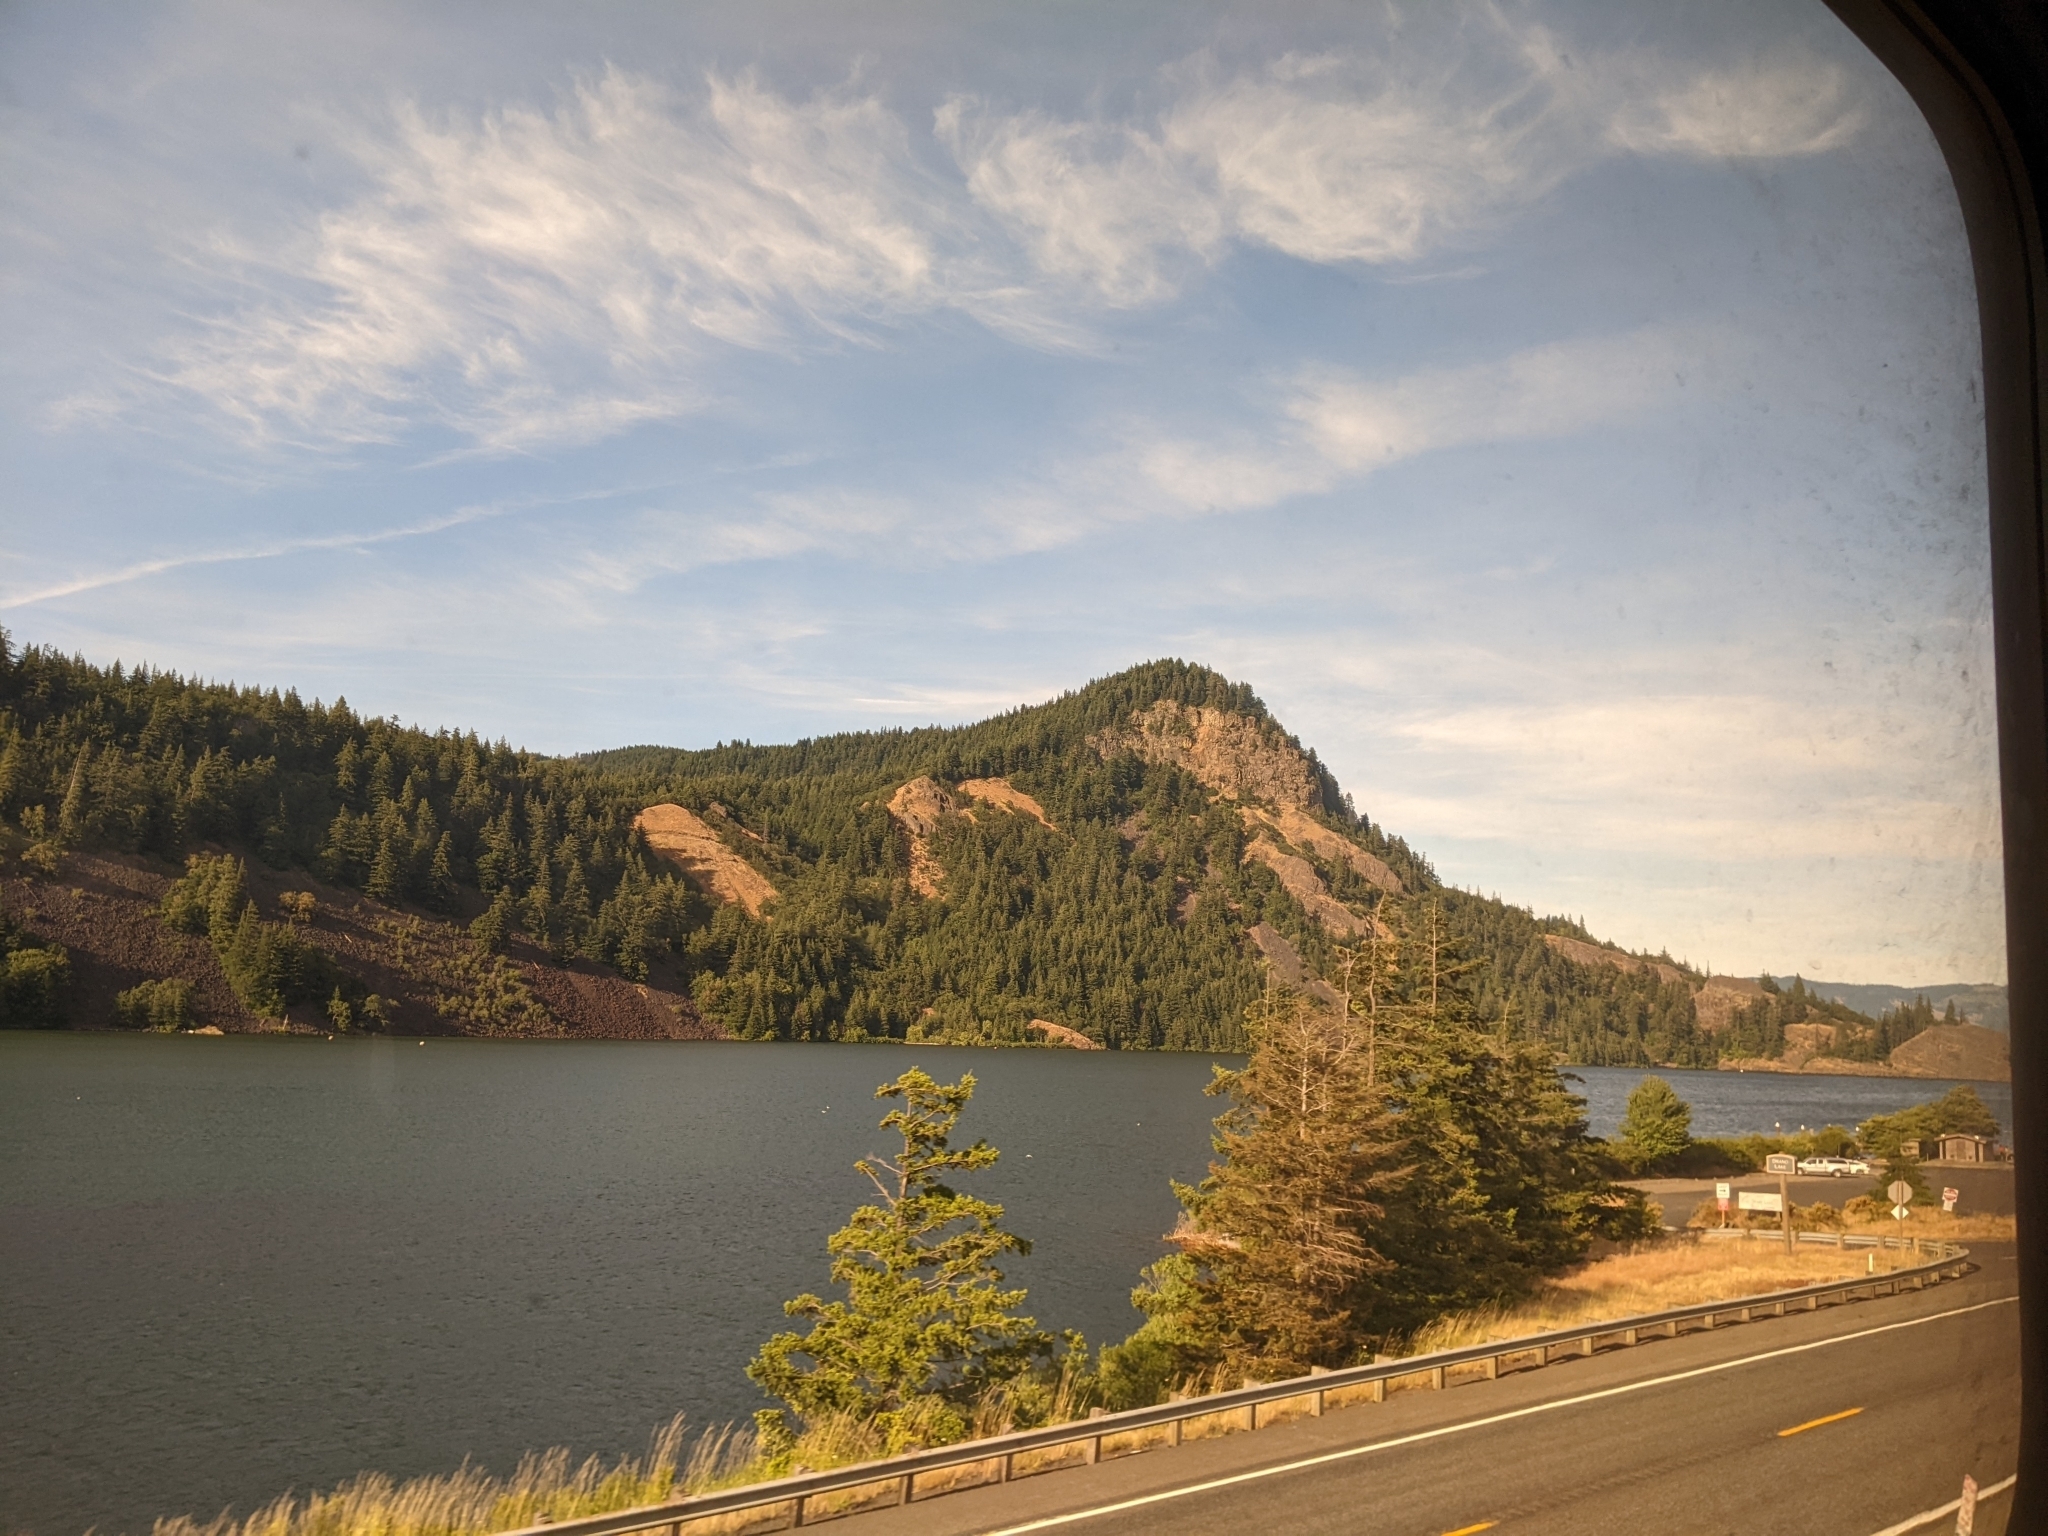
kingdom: Plantae
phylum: Tracheophyta
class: Pinopsida
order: Pinales
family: Pinaceae
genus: Pseudotsuga
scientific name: Pseudotsuga menziesii
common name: Douglas fir
